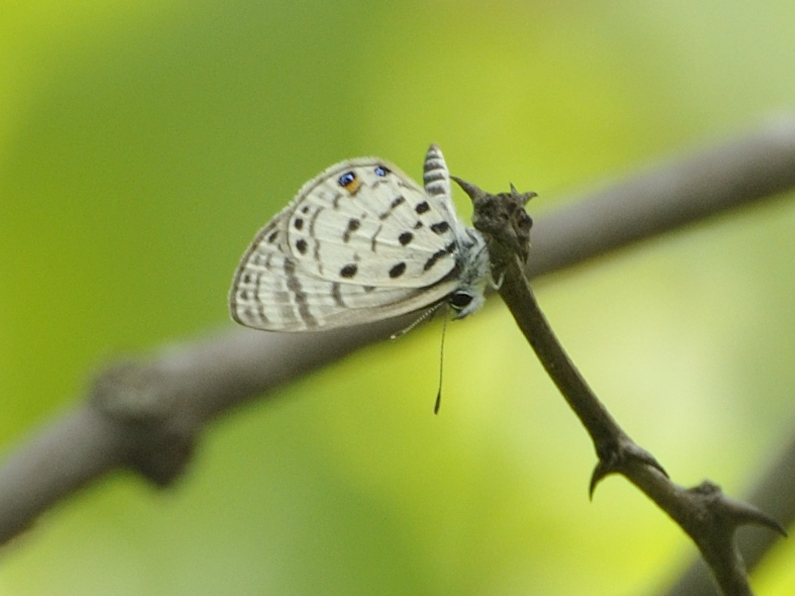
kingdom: Animalia
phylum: Arthropoda
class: Insecta
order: Lepidoptera
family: Lycaenidae
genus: Azanus
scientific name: Azanus mirza
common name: Mirza babul blue
